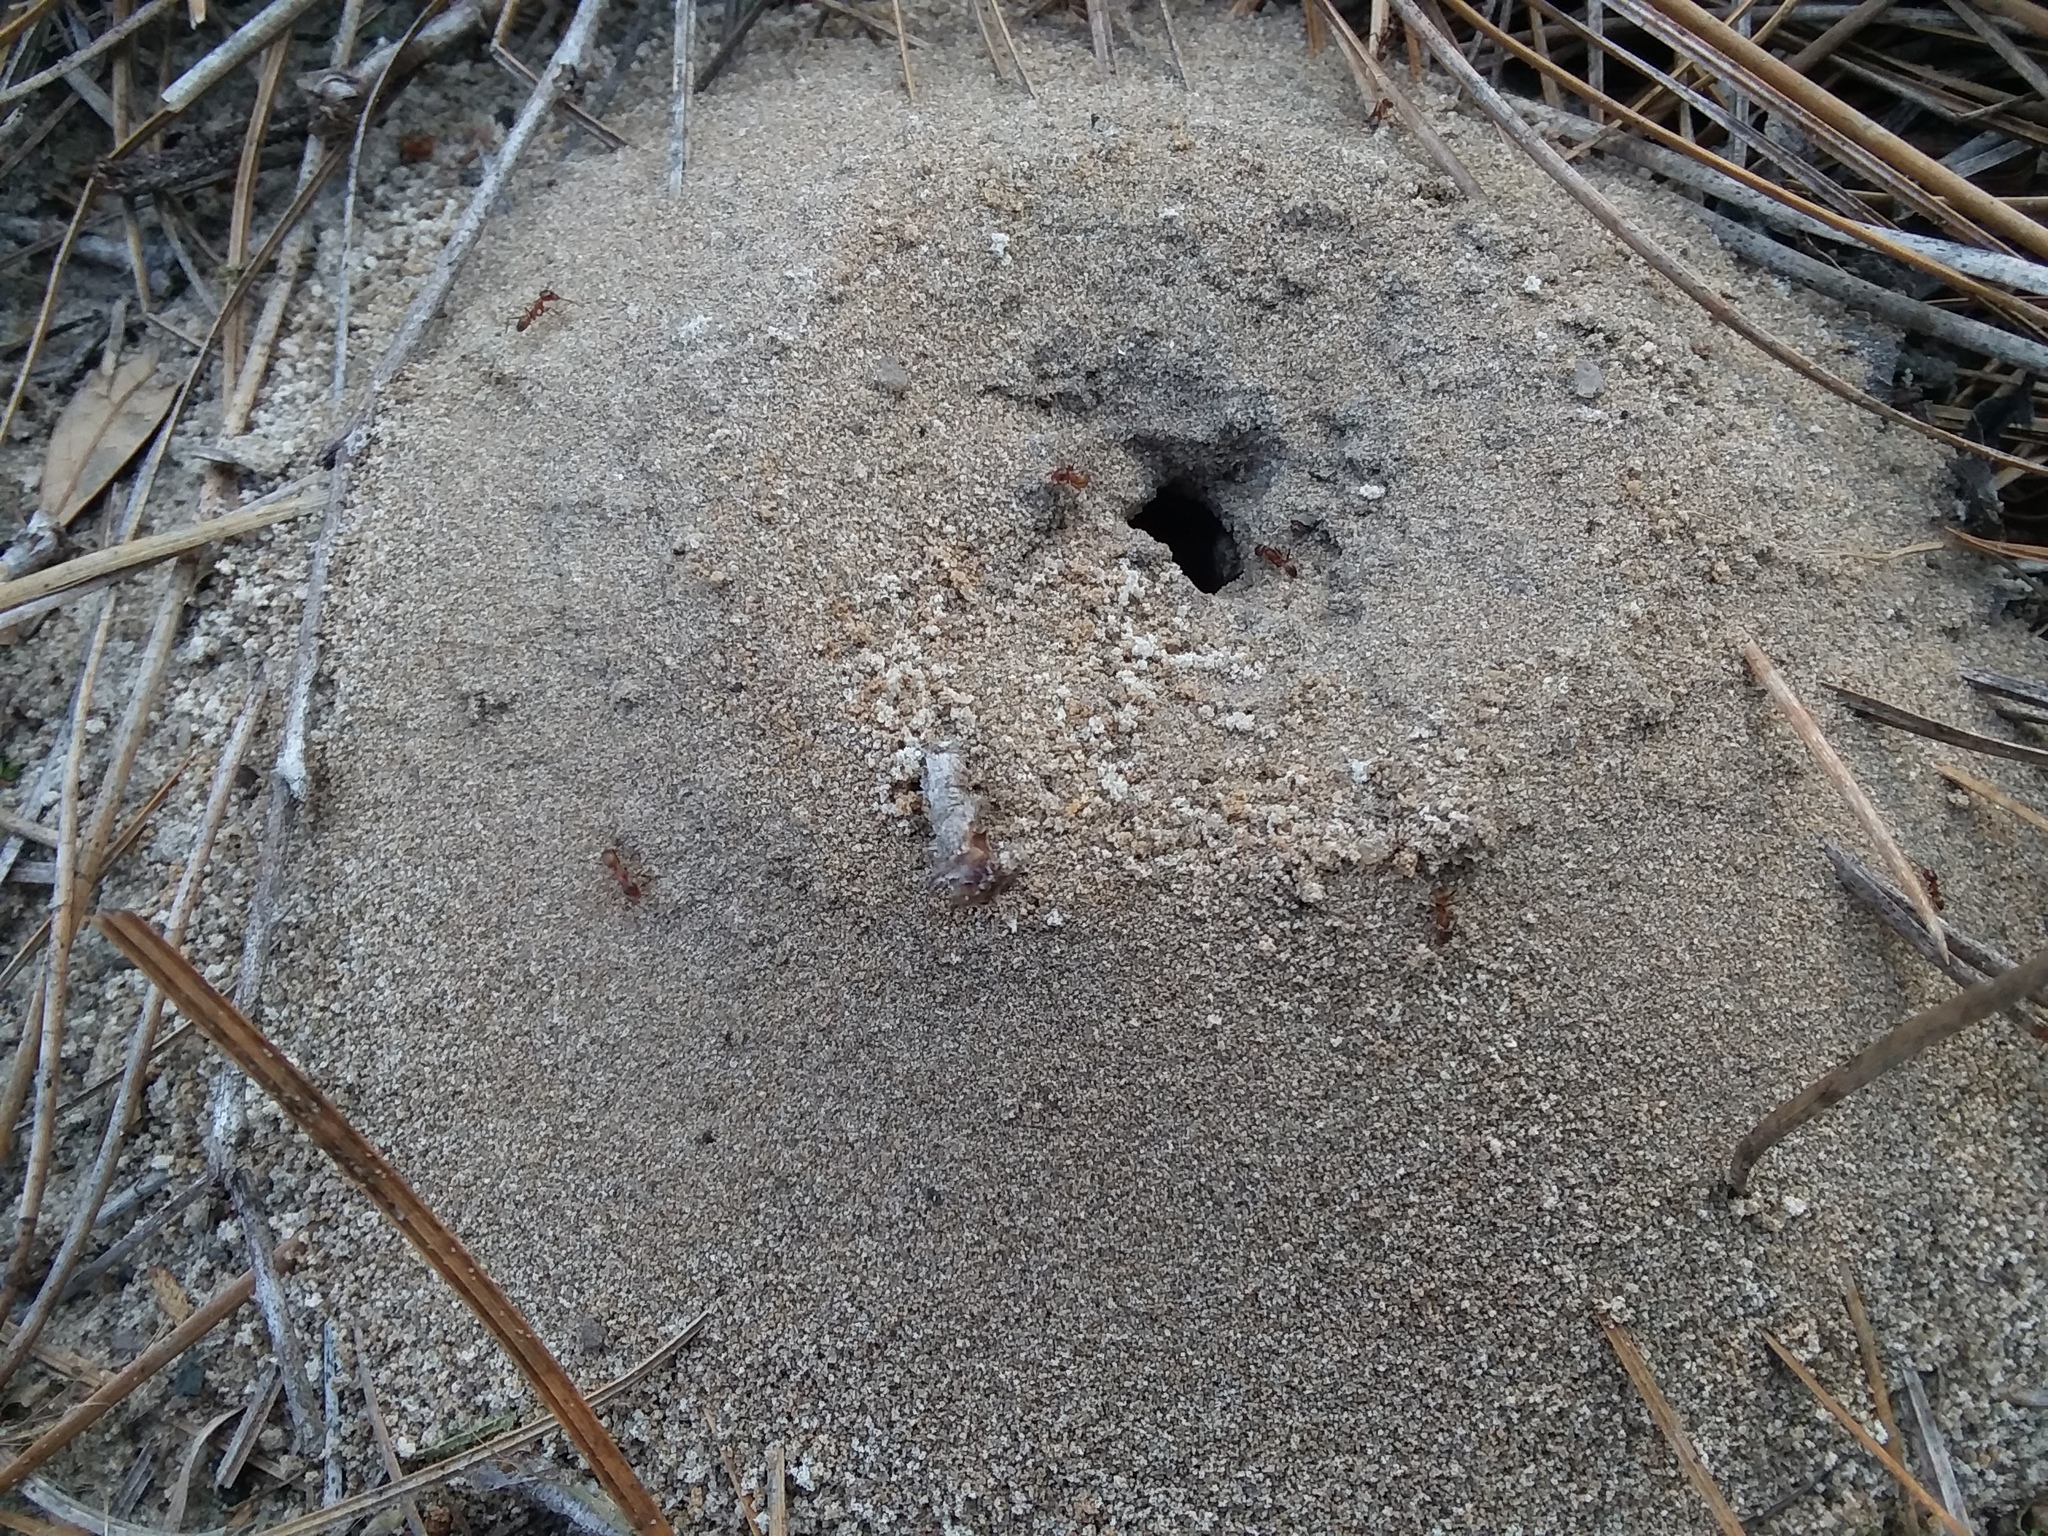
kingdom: Animalia
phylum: Arthropoda
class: Insecta
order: Hymenoptera
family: Formicidae
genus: Dorymyrmex
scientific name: Dorymyrmex bureni
